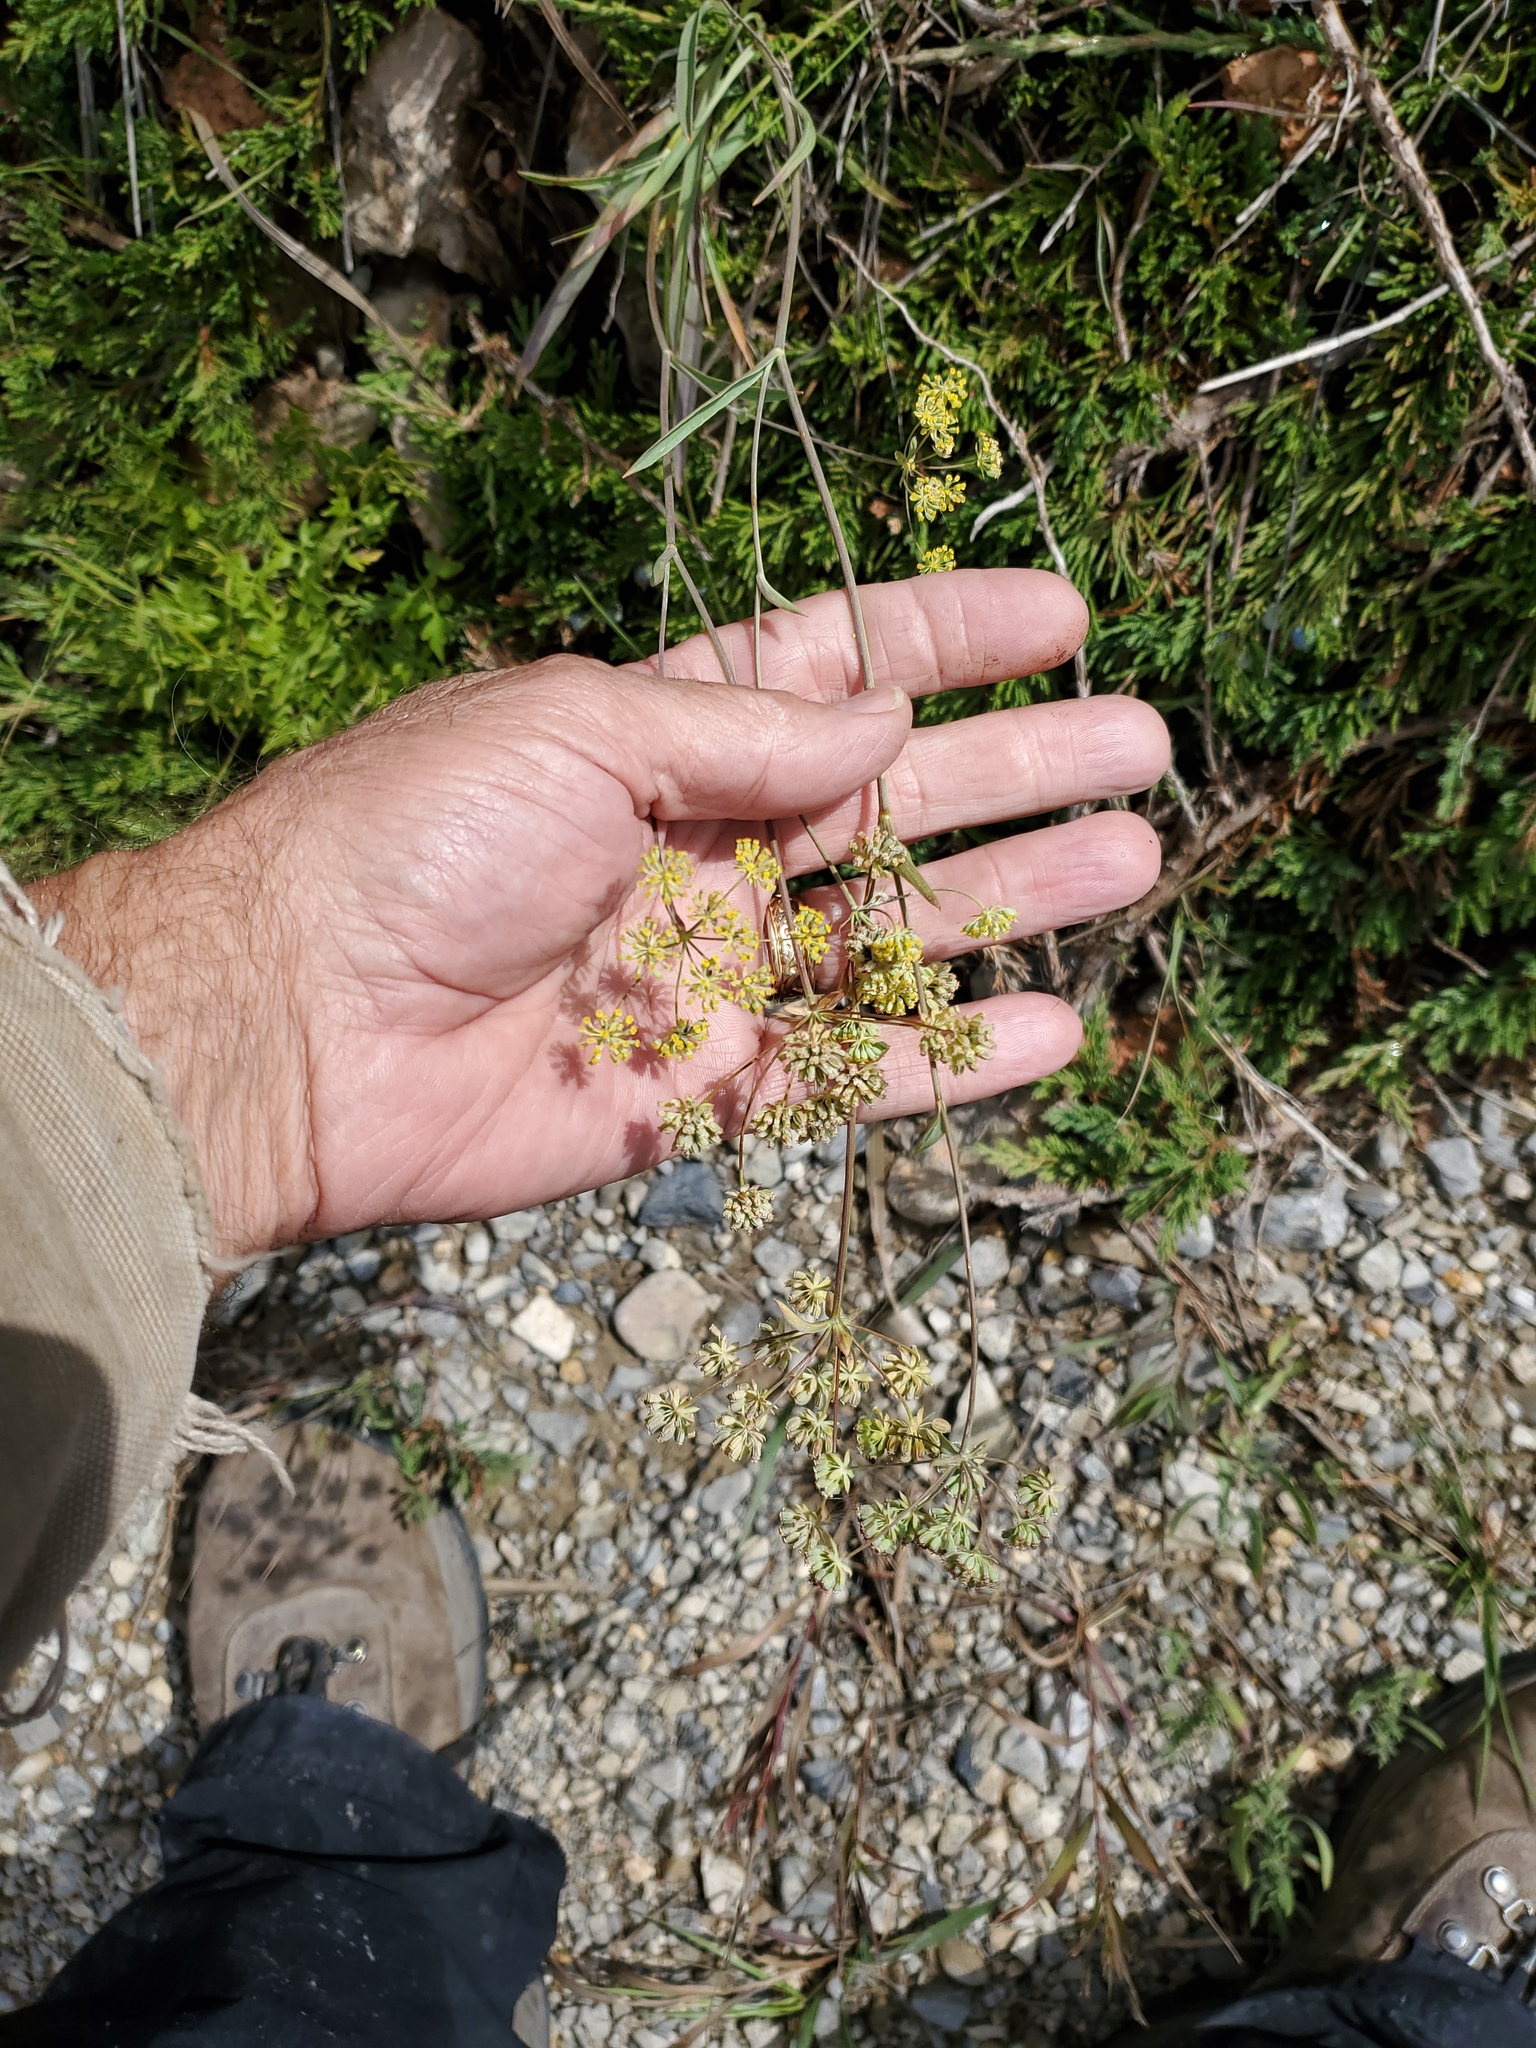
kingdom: Plantae
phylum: Tracheophyta
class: Magnoliopsida
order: Apiales
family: Apiaceae
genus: Bupleurum
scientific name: Bupleurum americanum
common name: American thoroughwax
